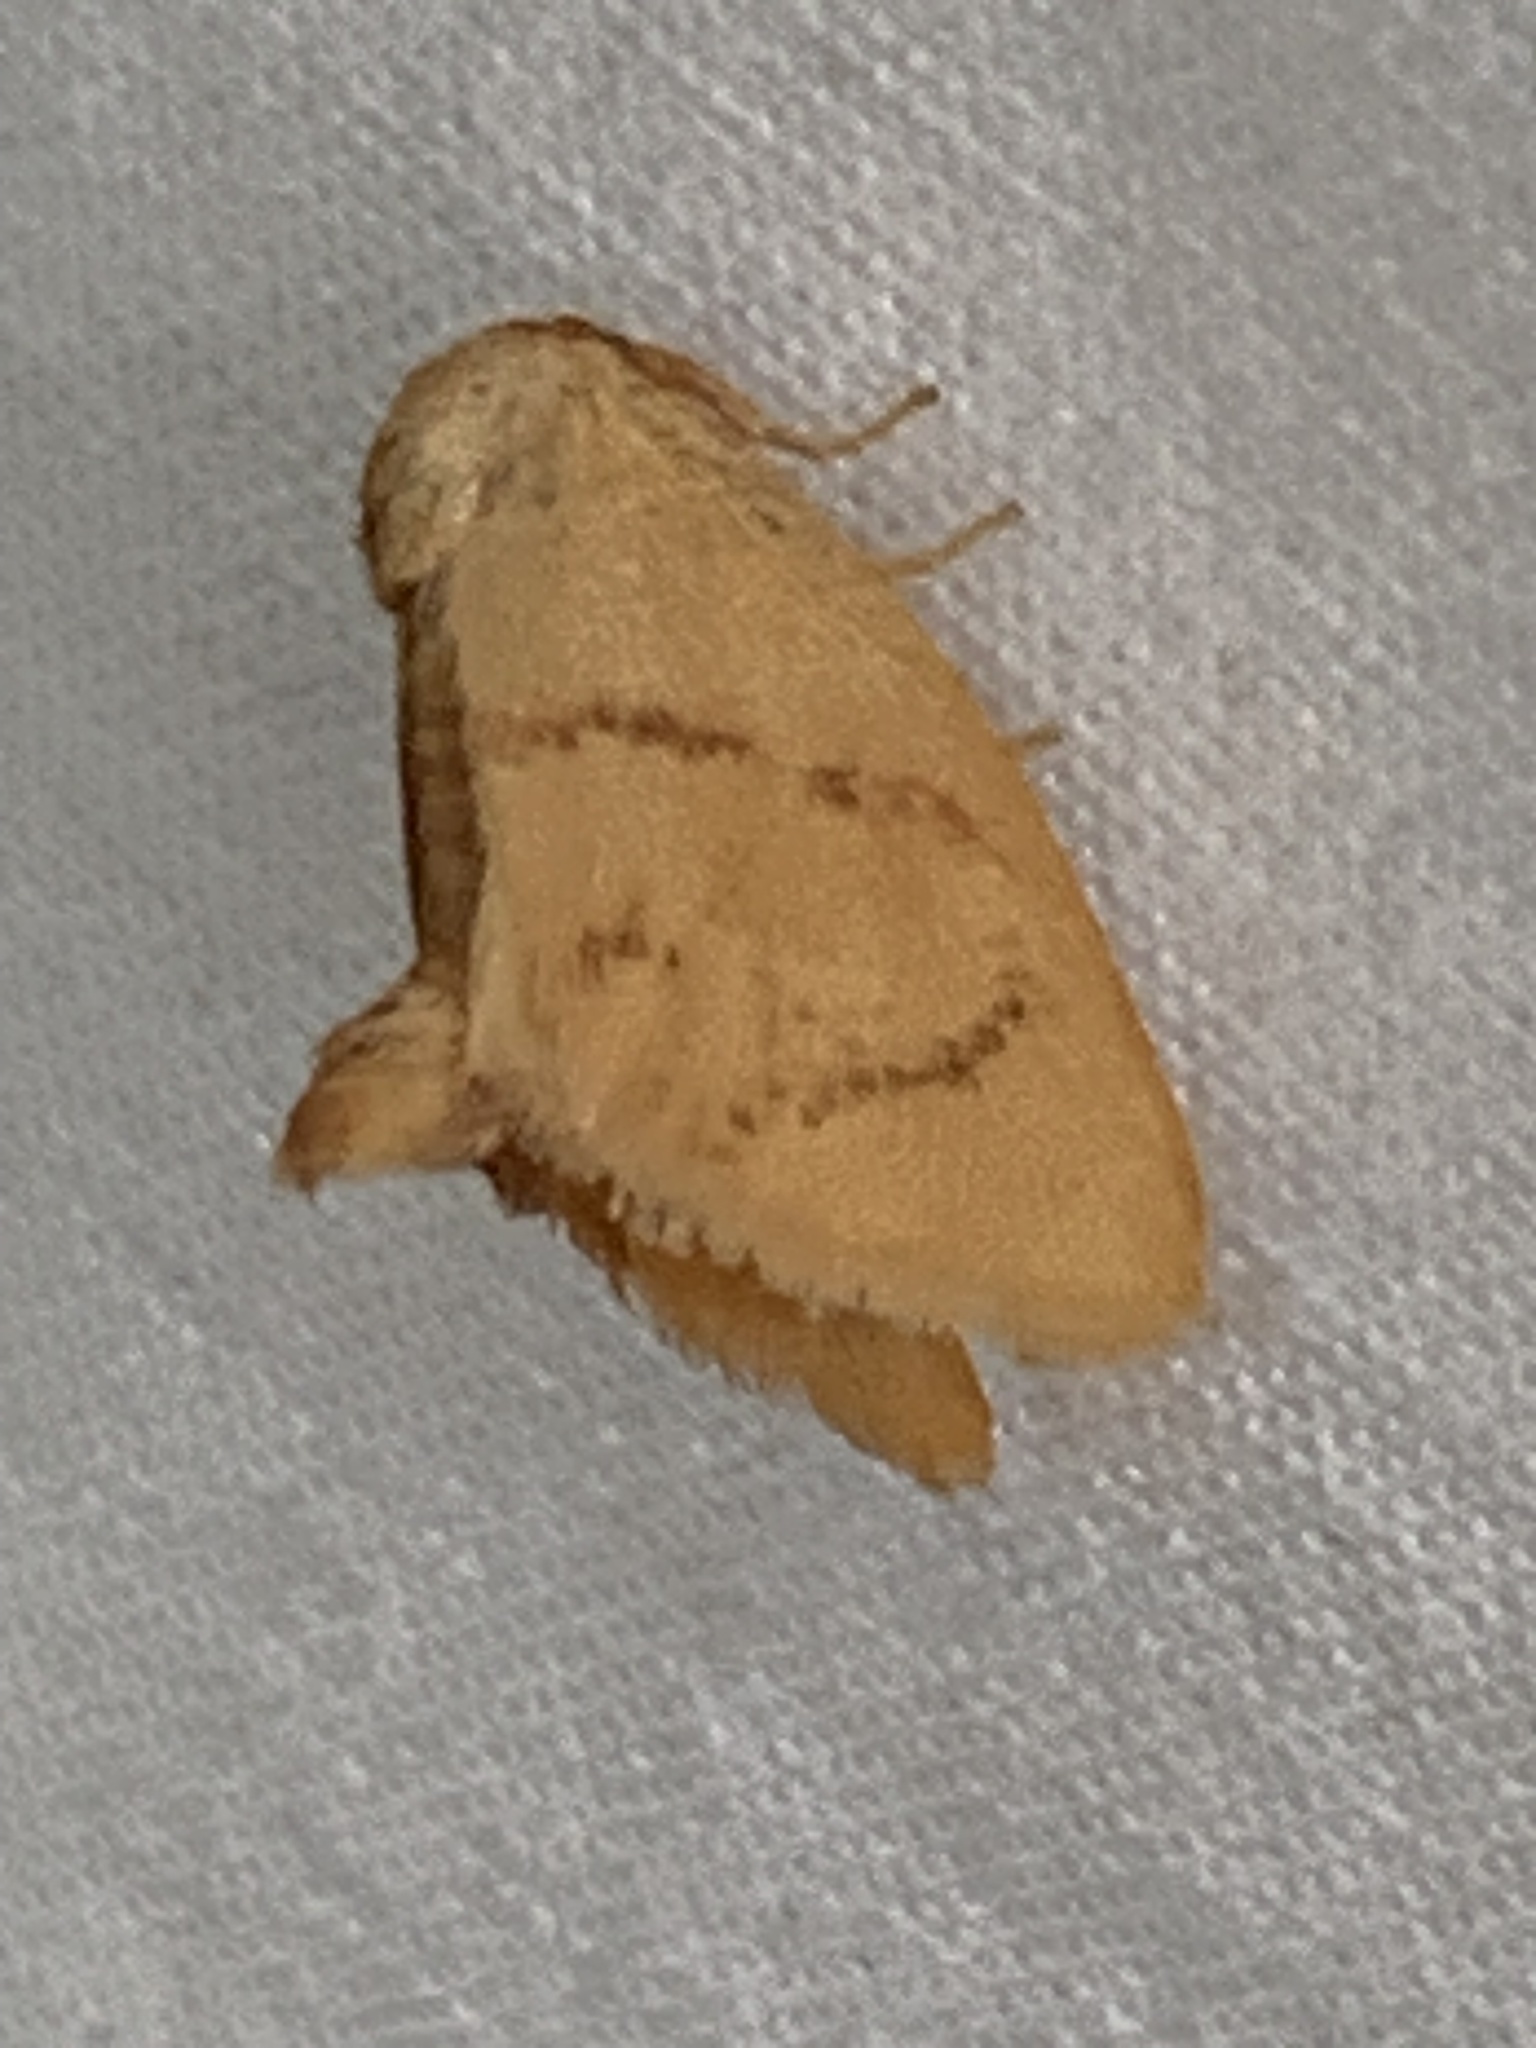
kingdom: Animalia
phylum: Arthropoda
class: Insecta
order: Lepidoptera
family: Limacodidae
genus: Tortricidia
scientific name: Tortricidia flexuosa
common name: Abbreviated button slug moth
